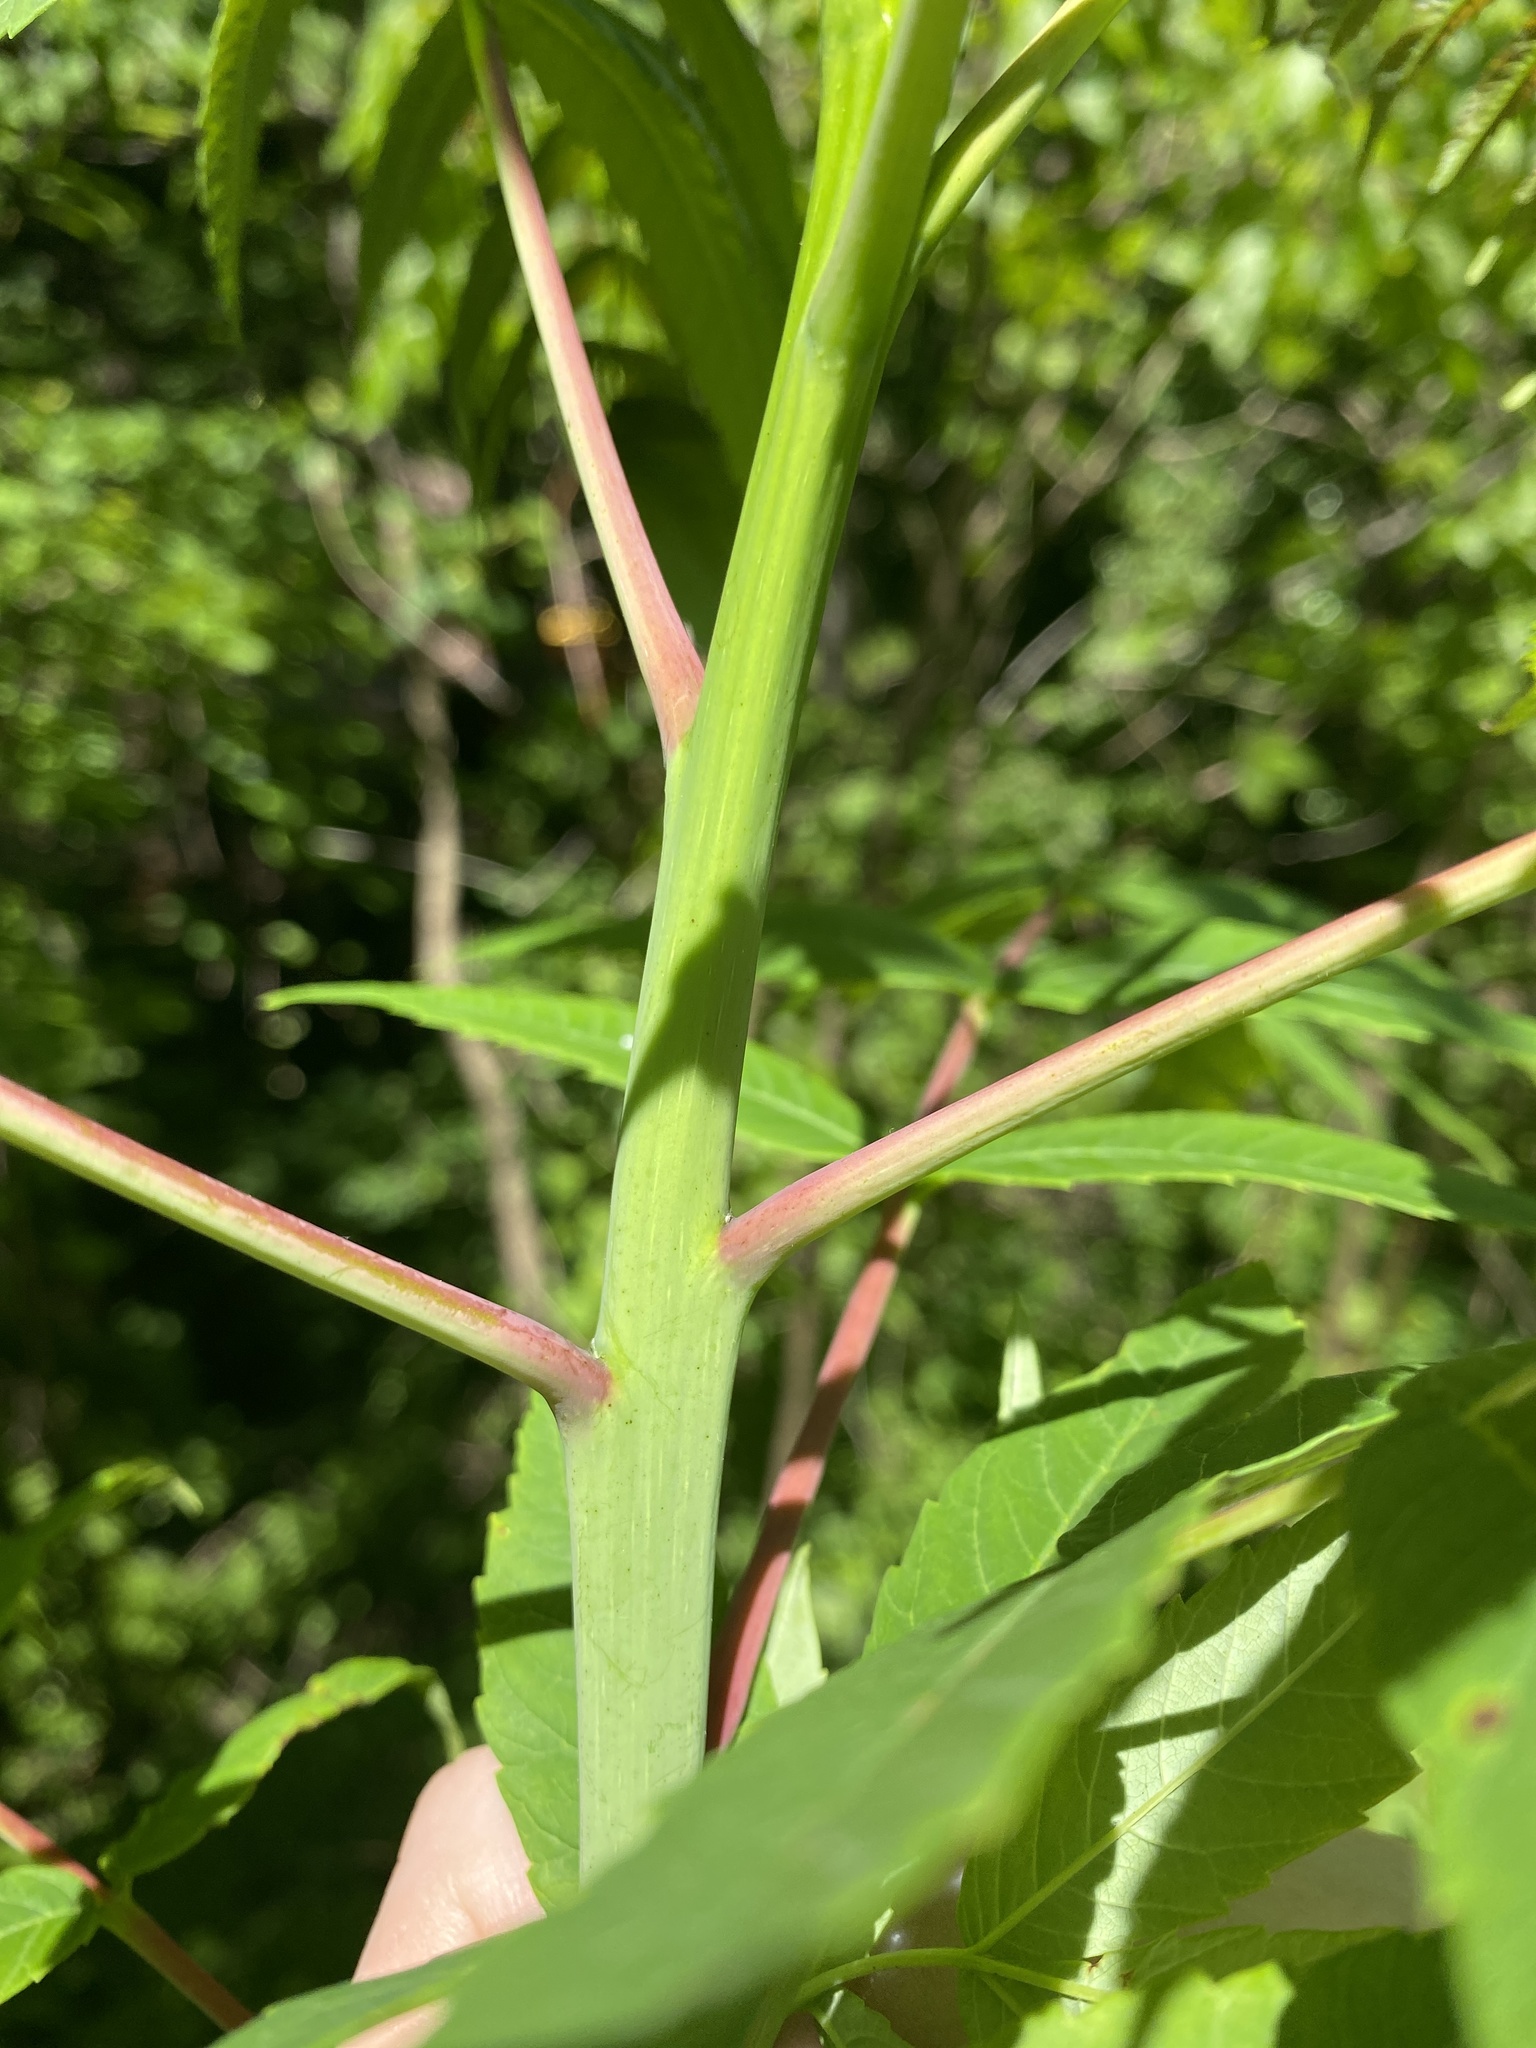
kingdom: Plantae
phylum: Tracheophyta
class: Magnoliopsida
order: Sapindales
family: Anacardiaceae
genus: Rhus
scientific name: Rhus glabra
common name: Scarlet sumac
